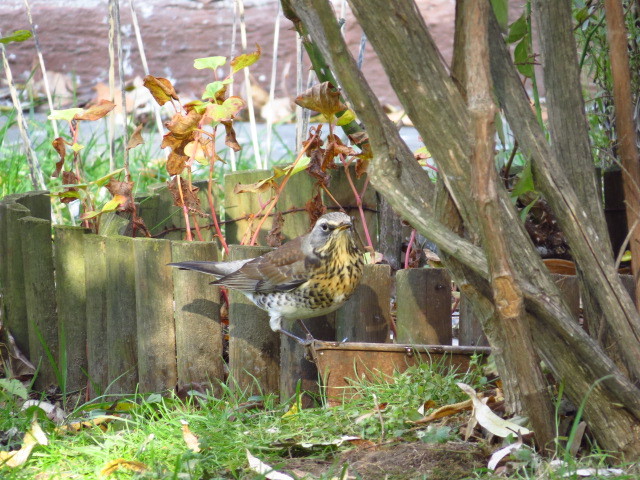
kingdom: Animalia
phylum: Chordata
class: Aves
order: Passeriformes
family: Turdidae
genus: Turdus
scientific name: Turdus pilaris
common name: Fieldfare
